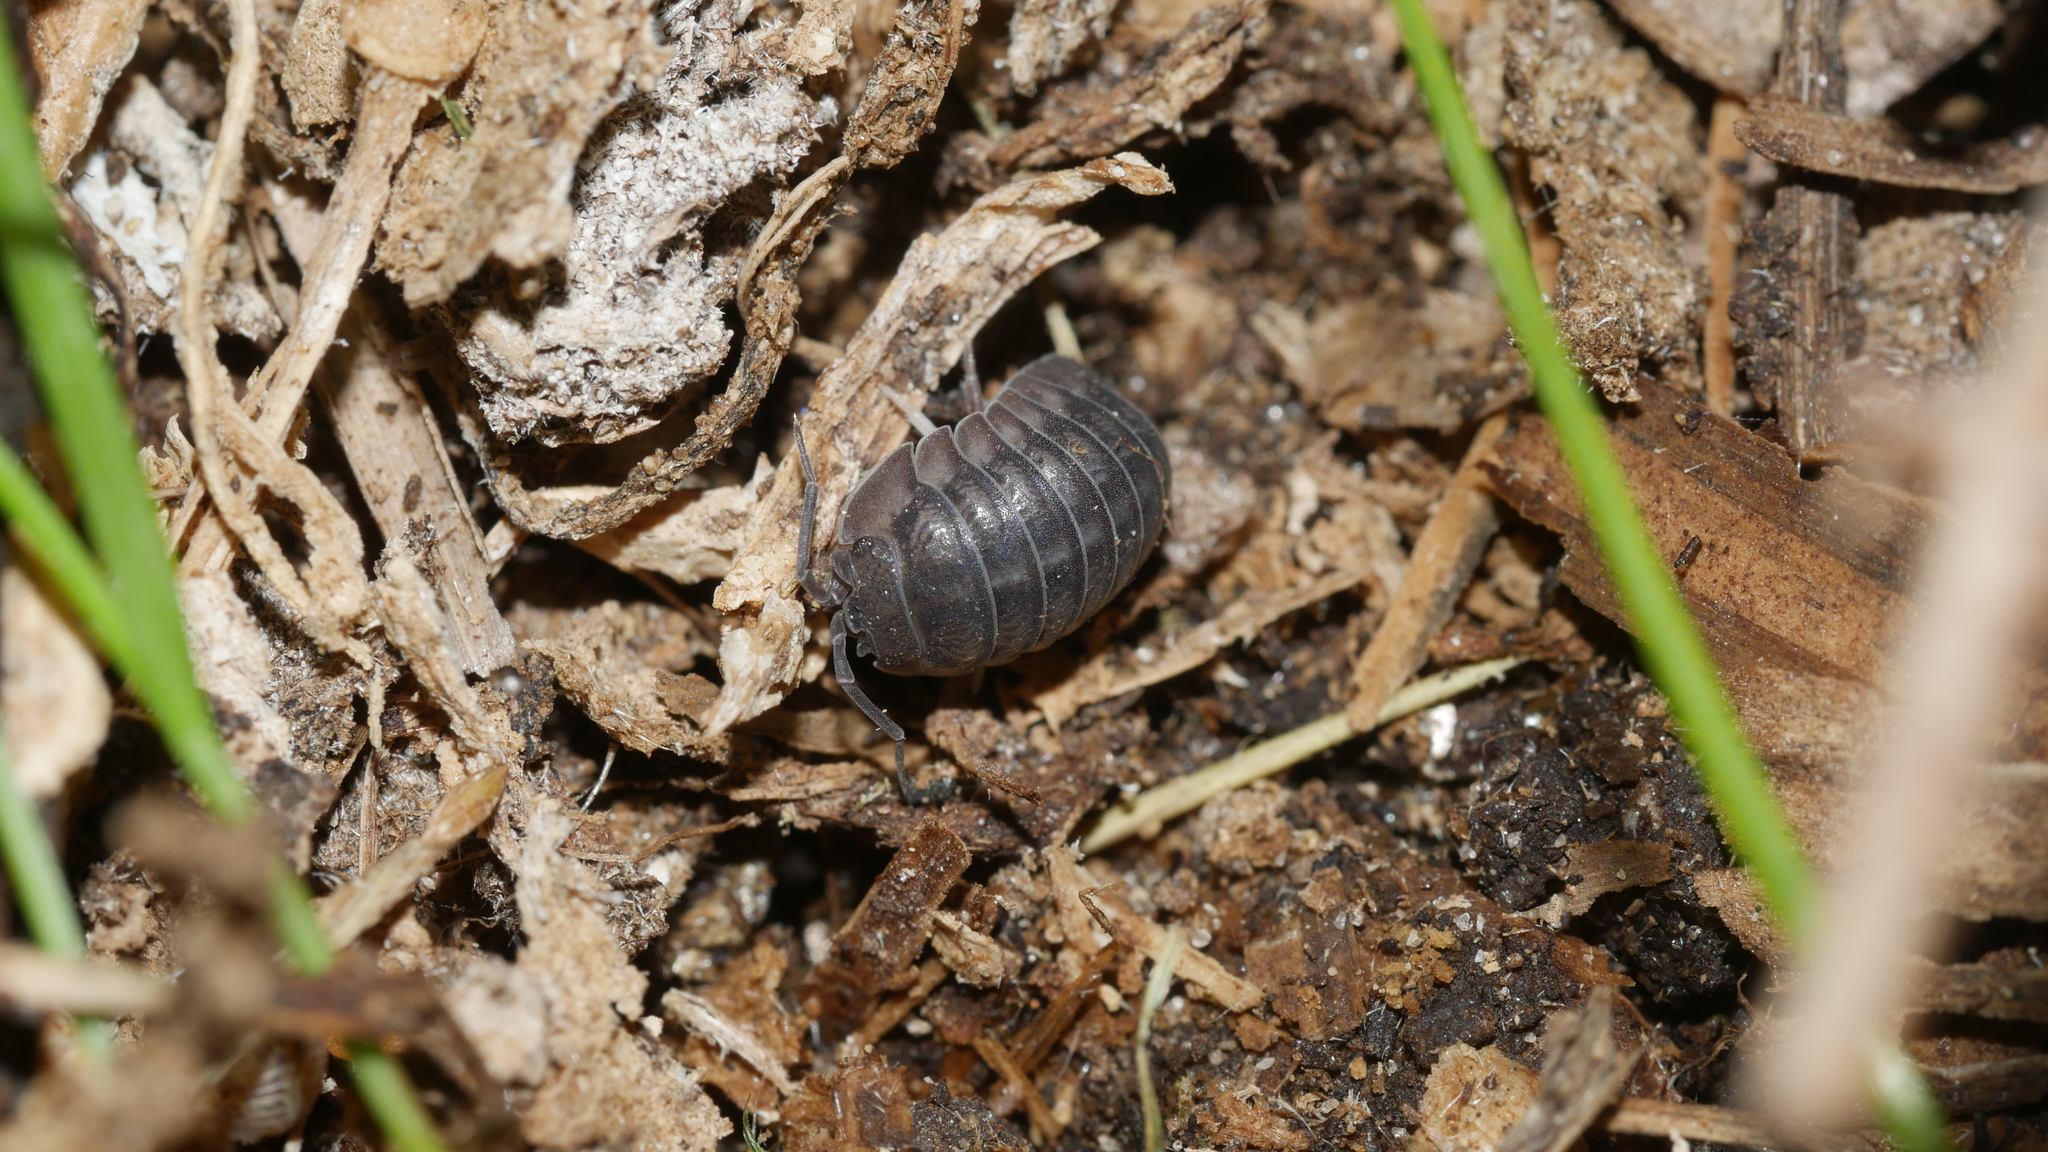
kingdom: Animalia
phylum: Arthropoda
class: Malacostraca
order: Isopoda
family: Armadillidiidae
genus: Armadillidium
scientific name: Armadillidium nasatum
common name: Isopod
